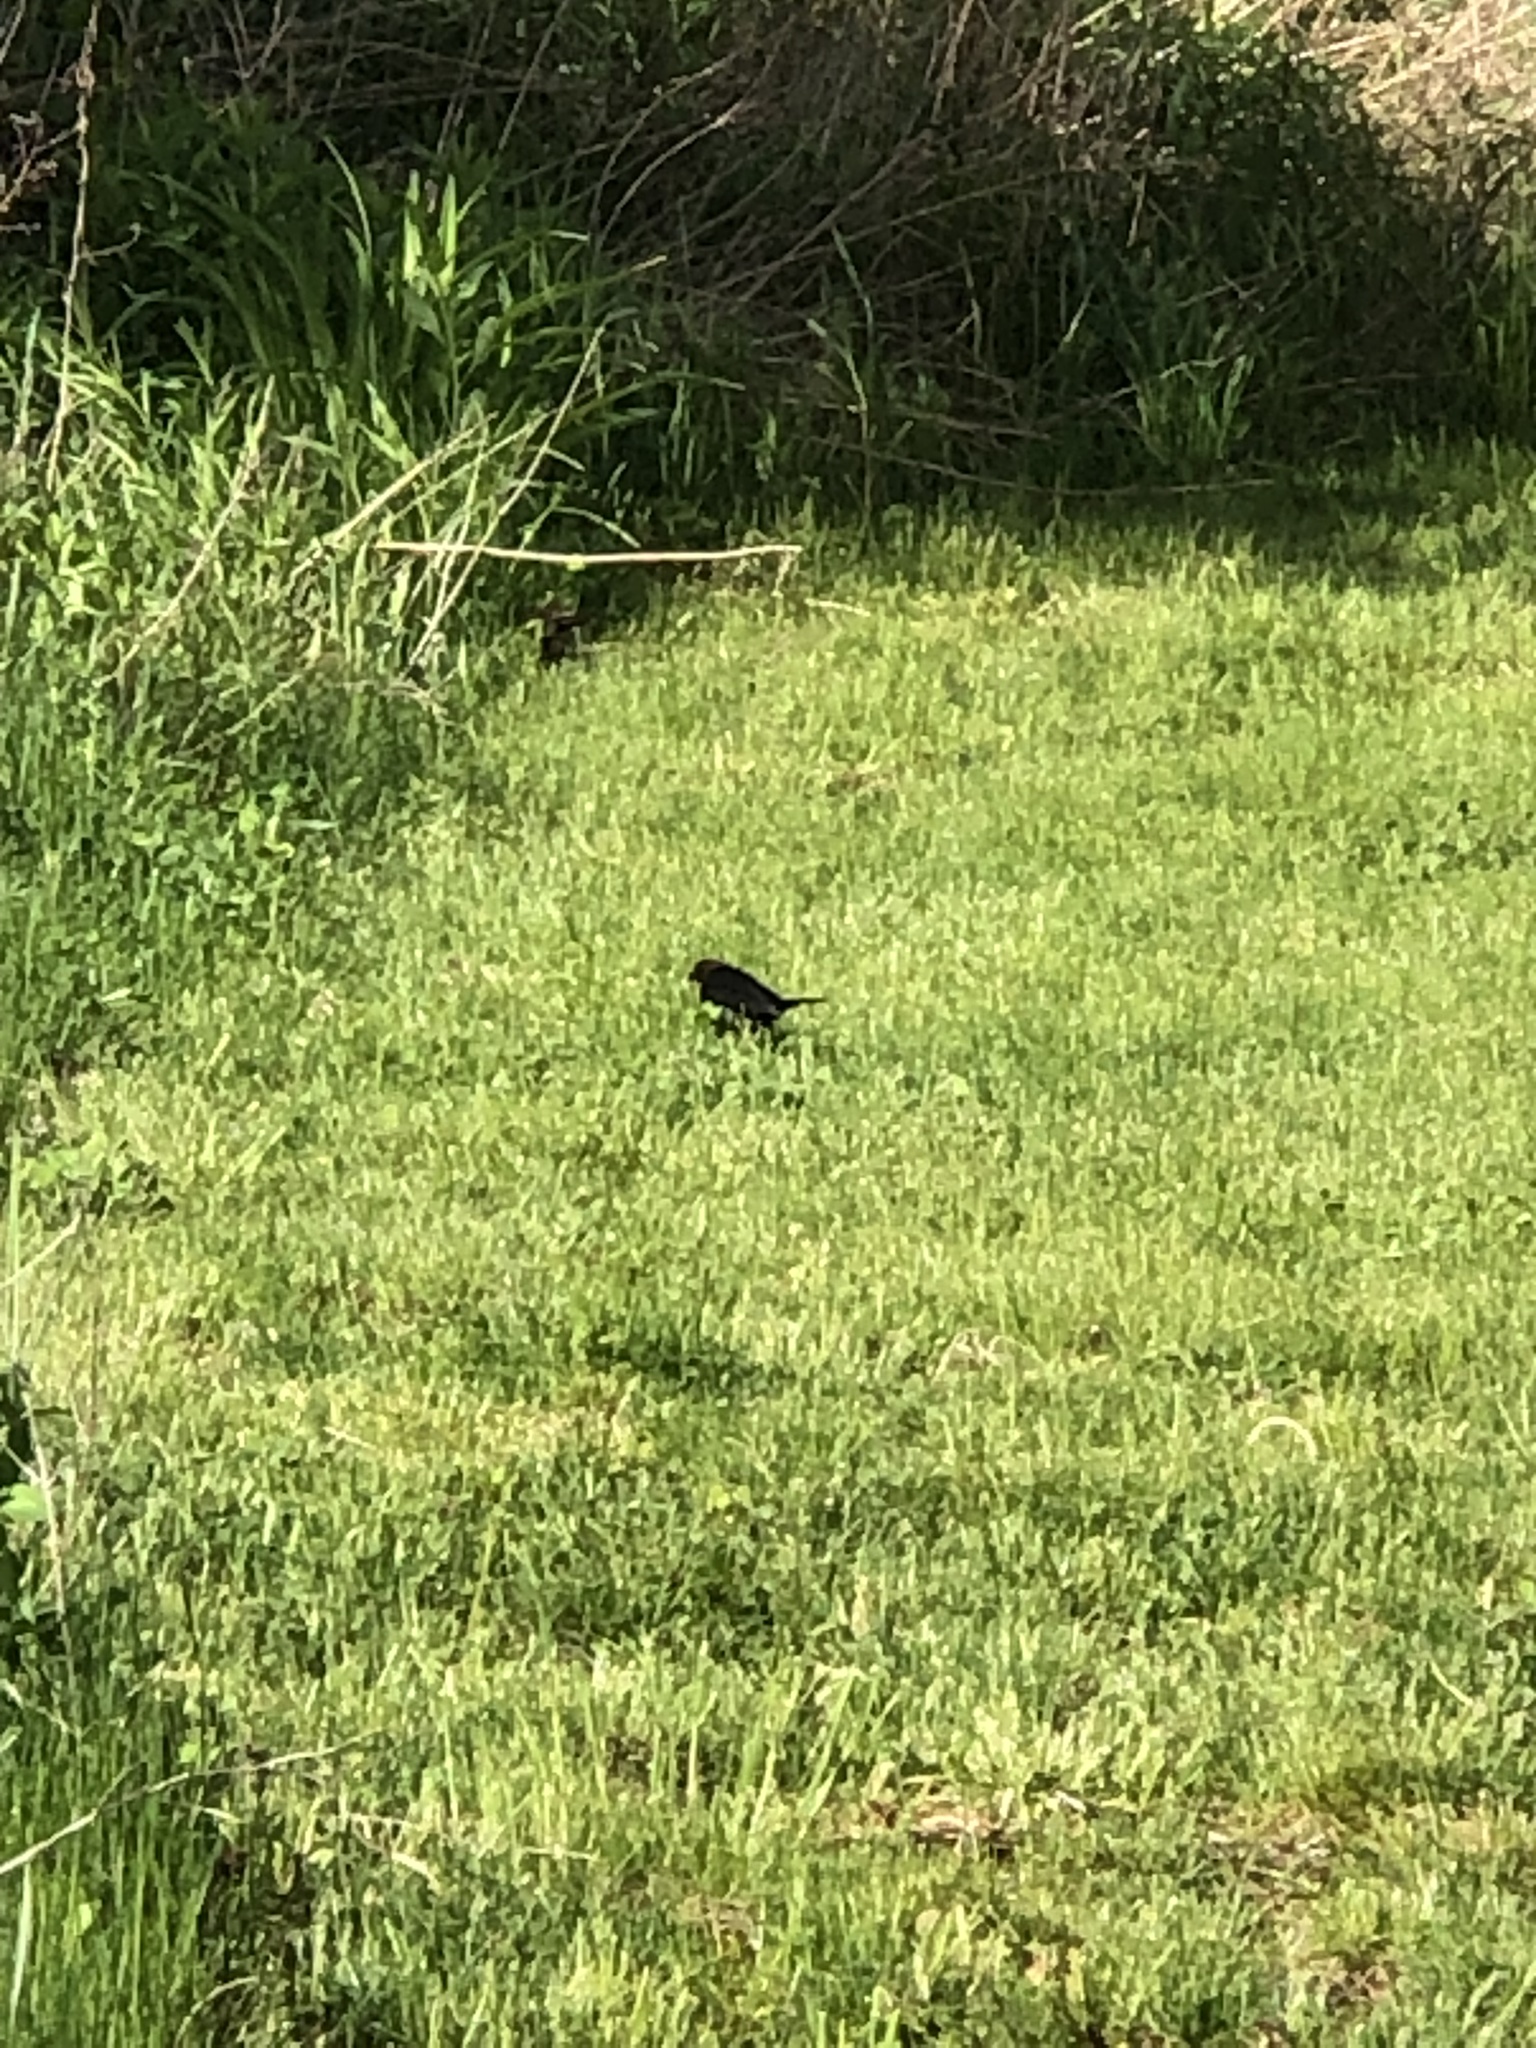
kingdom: Animalia
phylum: Chordata
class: Aves
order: Passeriformes
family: Icteridae
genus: Molothrus
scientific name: Molothrus ater
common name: Brown-headed cowbird
